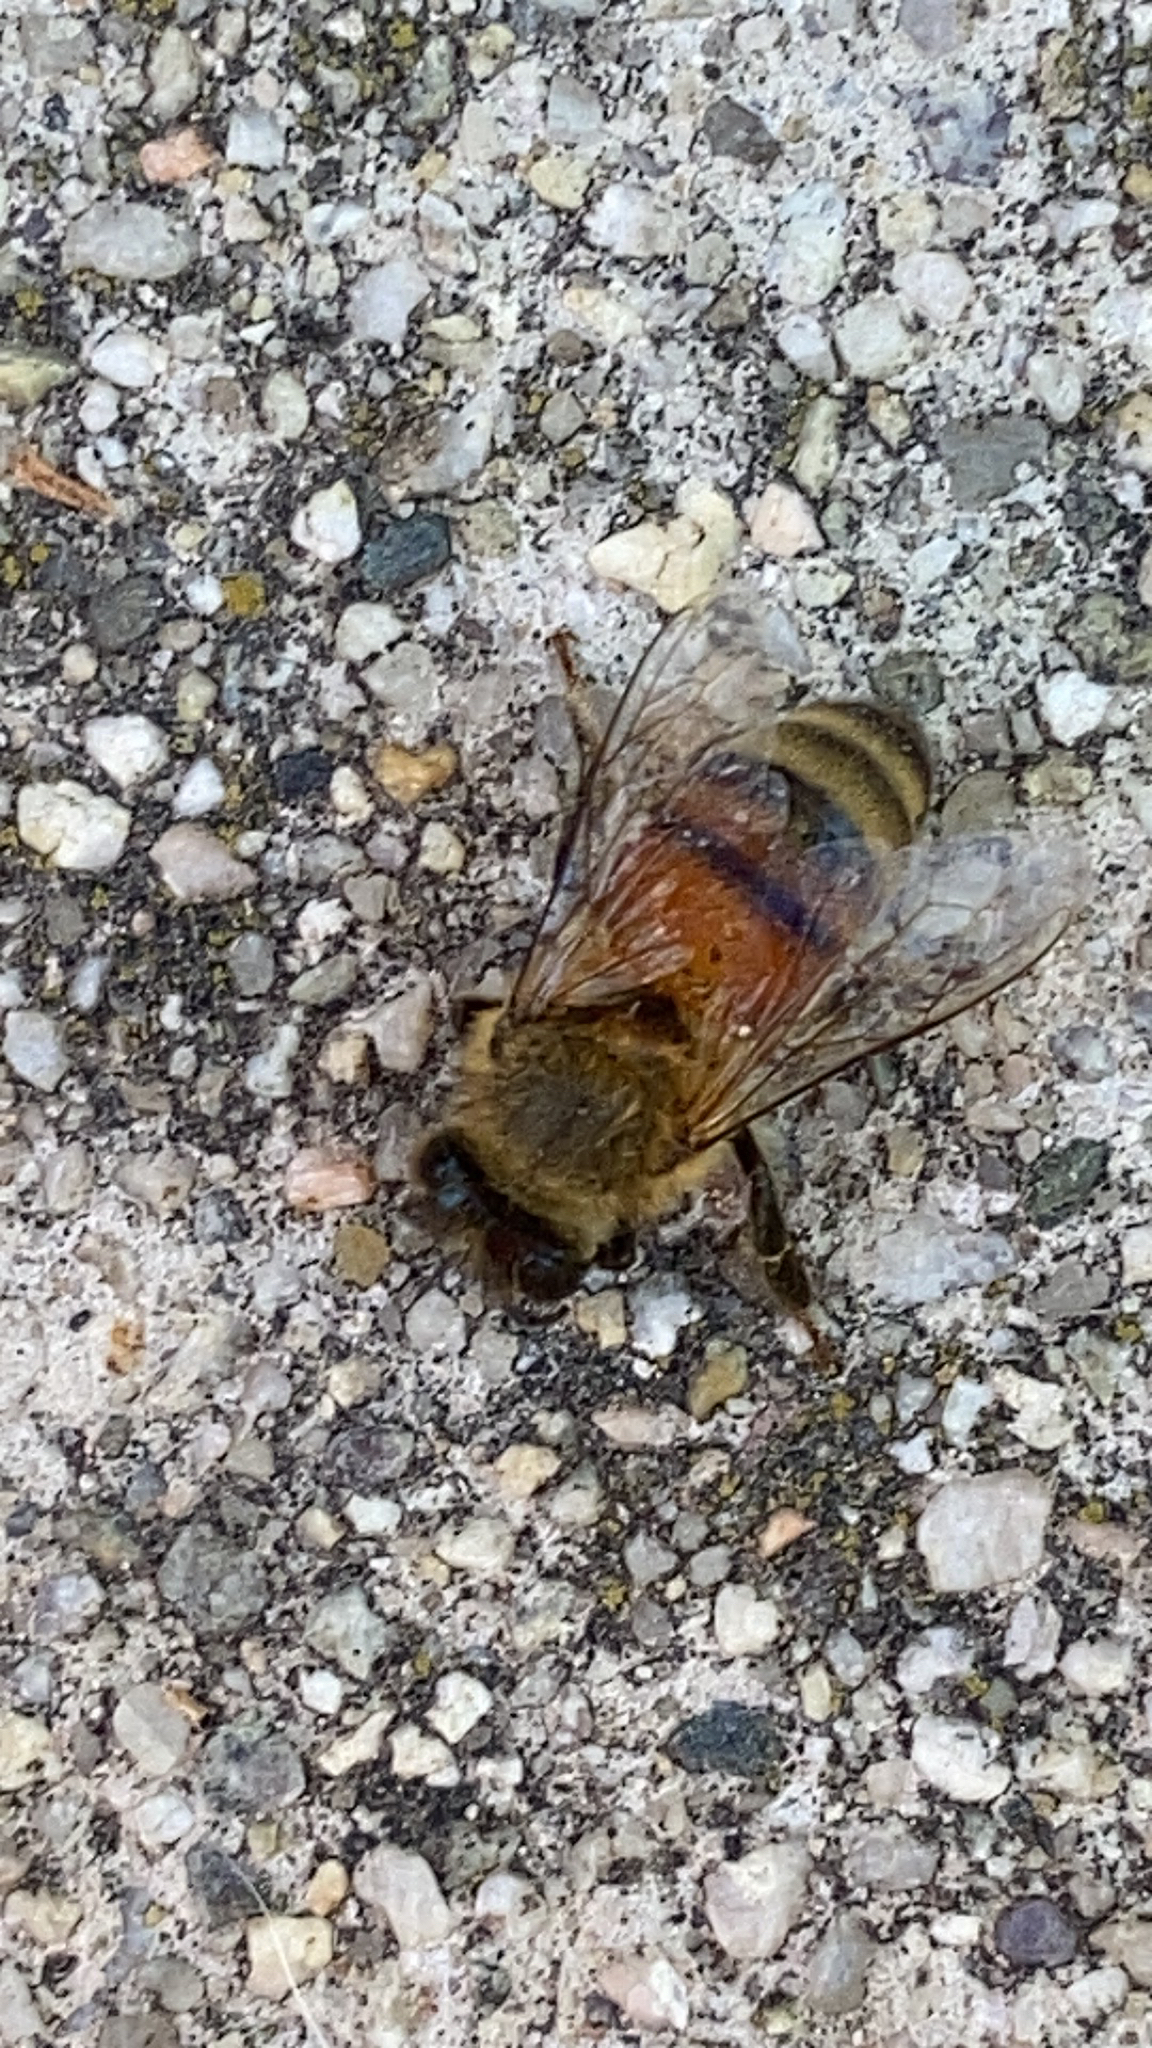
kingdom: Animalia
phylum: Arthropoda
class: Insecta
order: Hymenoptera
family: Apidae
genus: Apis
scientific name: Apis mellifera
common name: Honey bee
